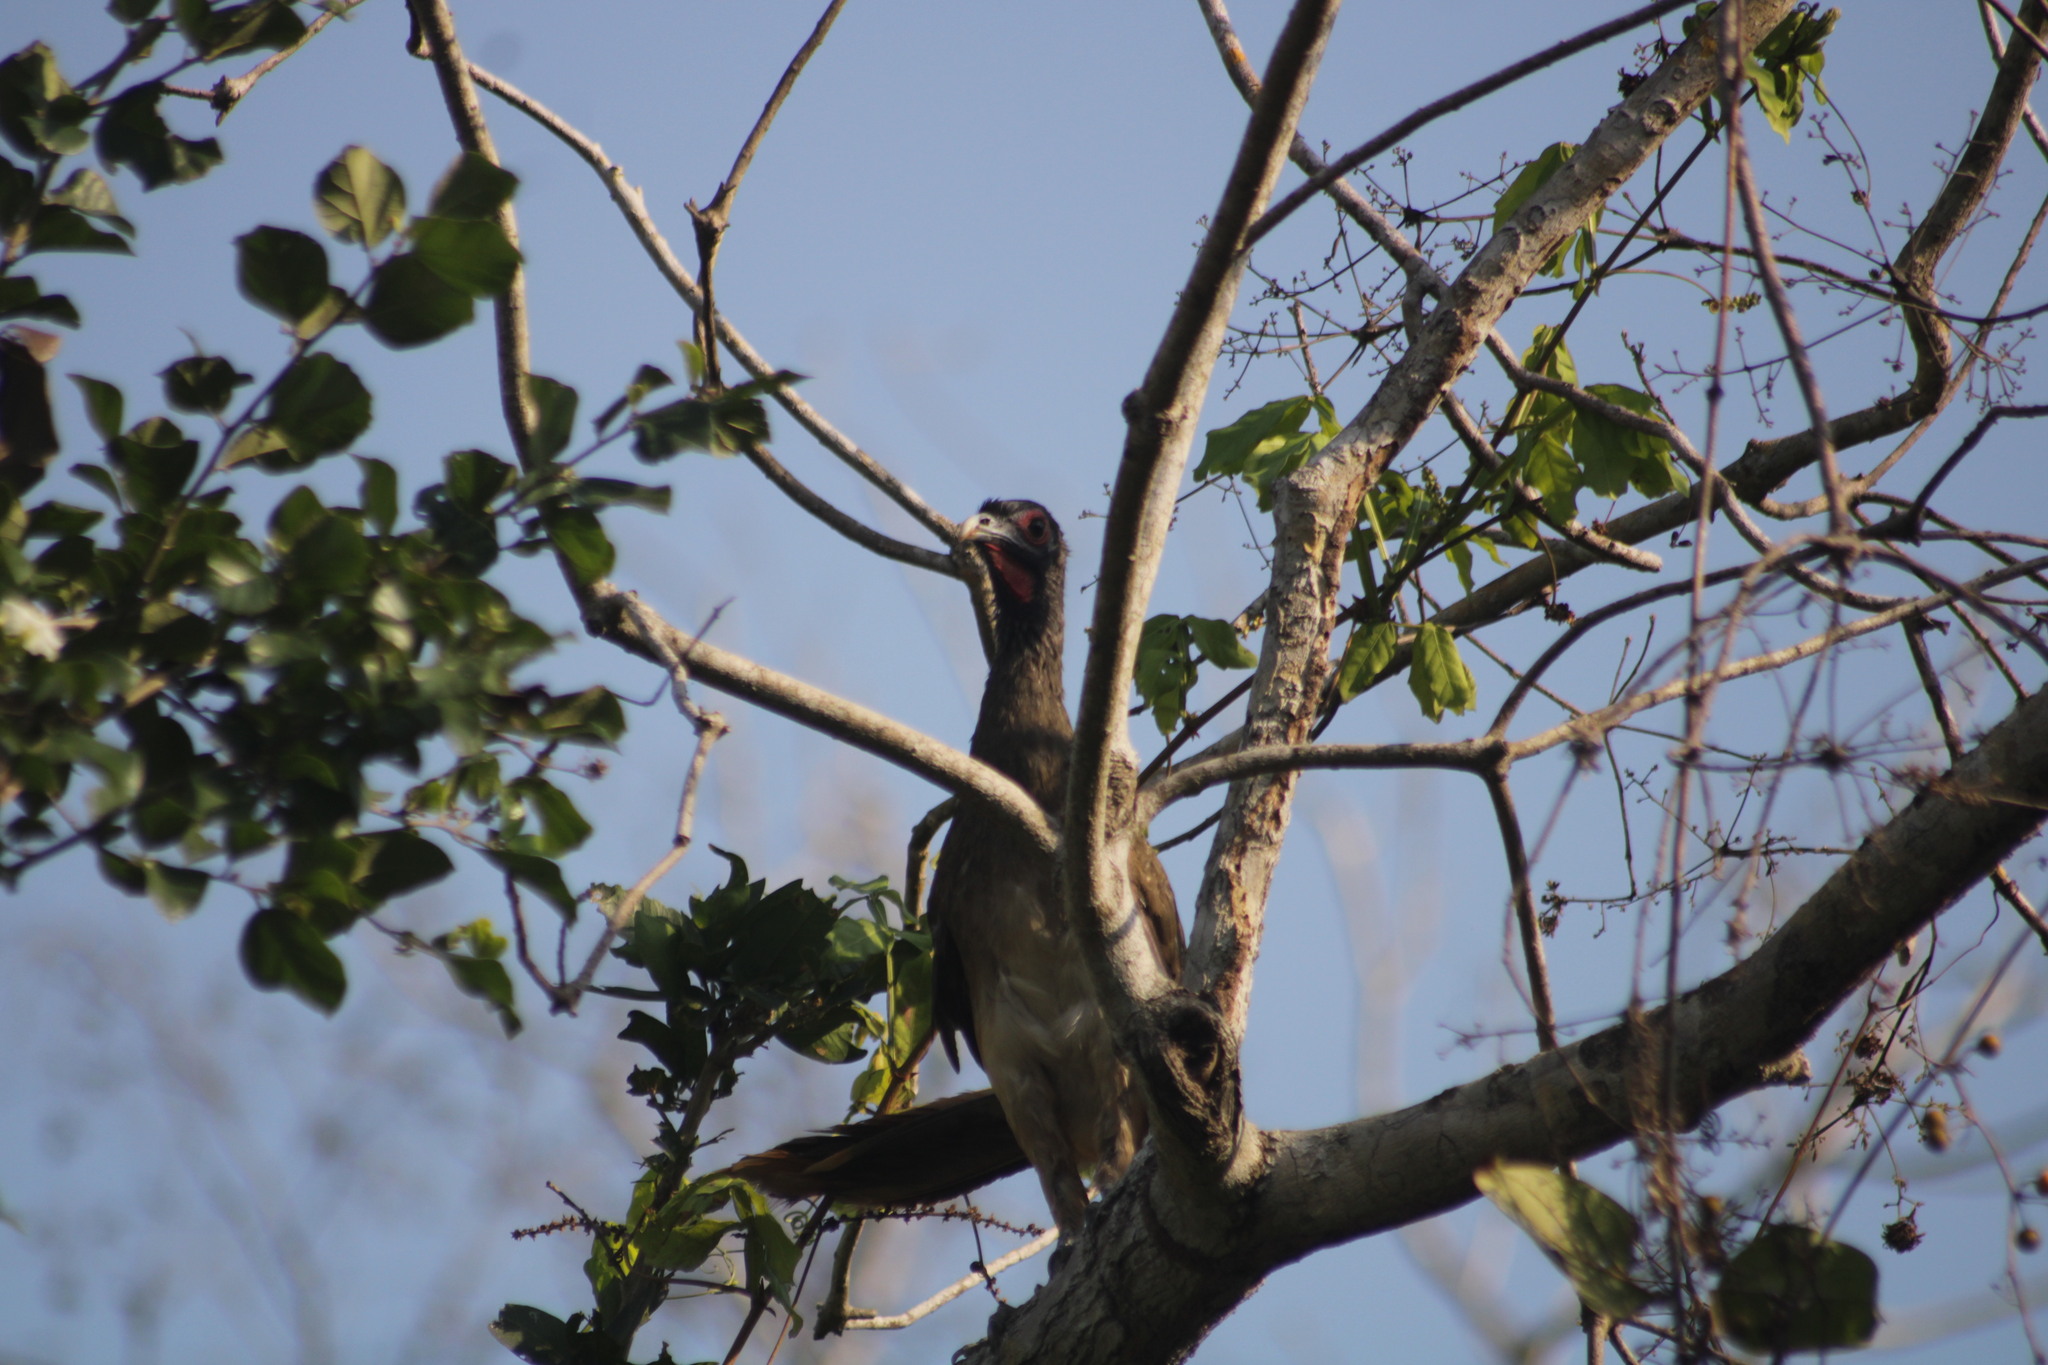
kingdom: Animalia
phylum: Chordata
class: Aves
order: Galliformes
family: Cracidae
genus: Ortalis
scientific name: Ortalis poliocephala
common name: West mexican chachalaca
